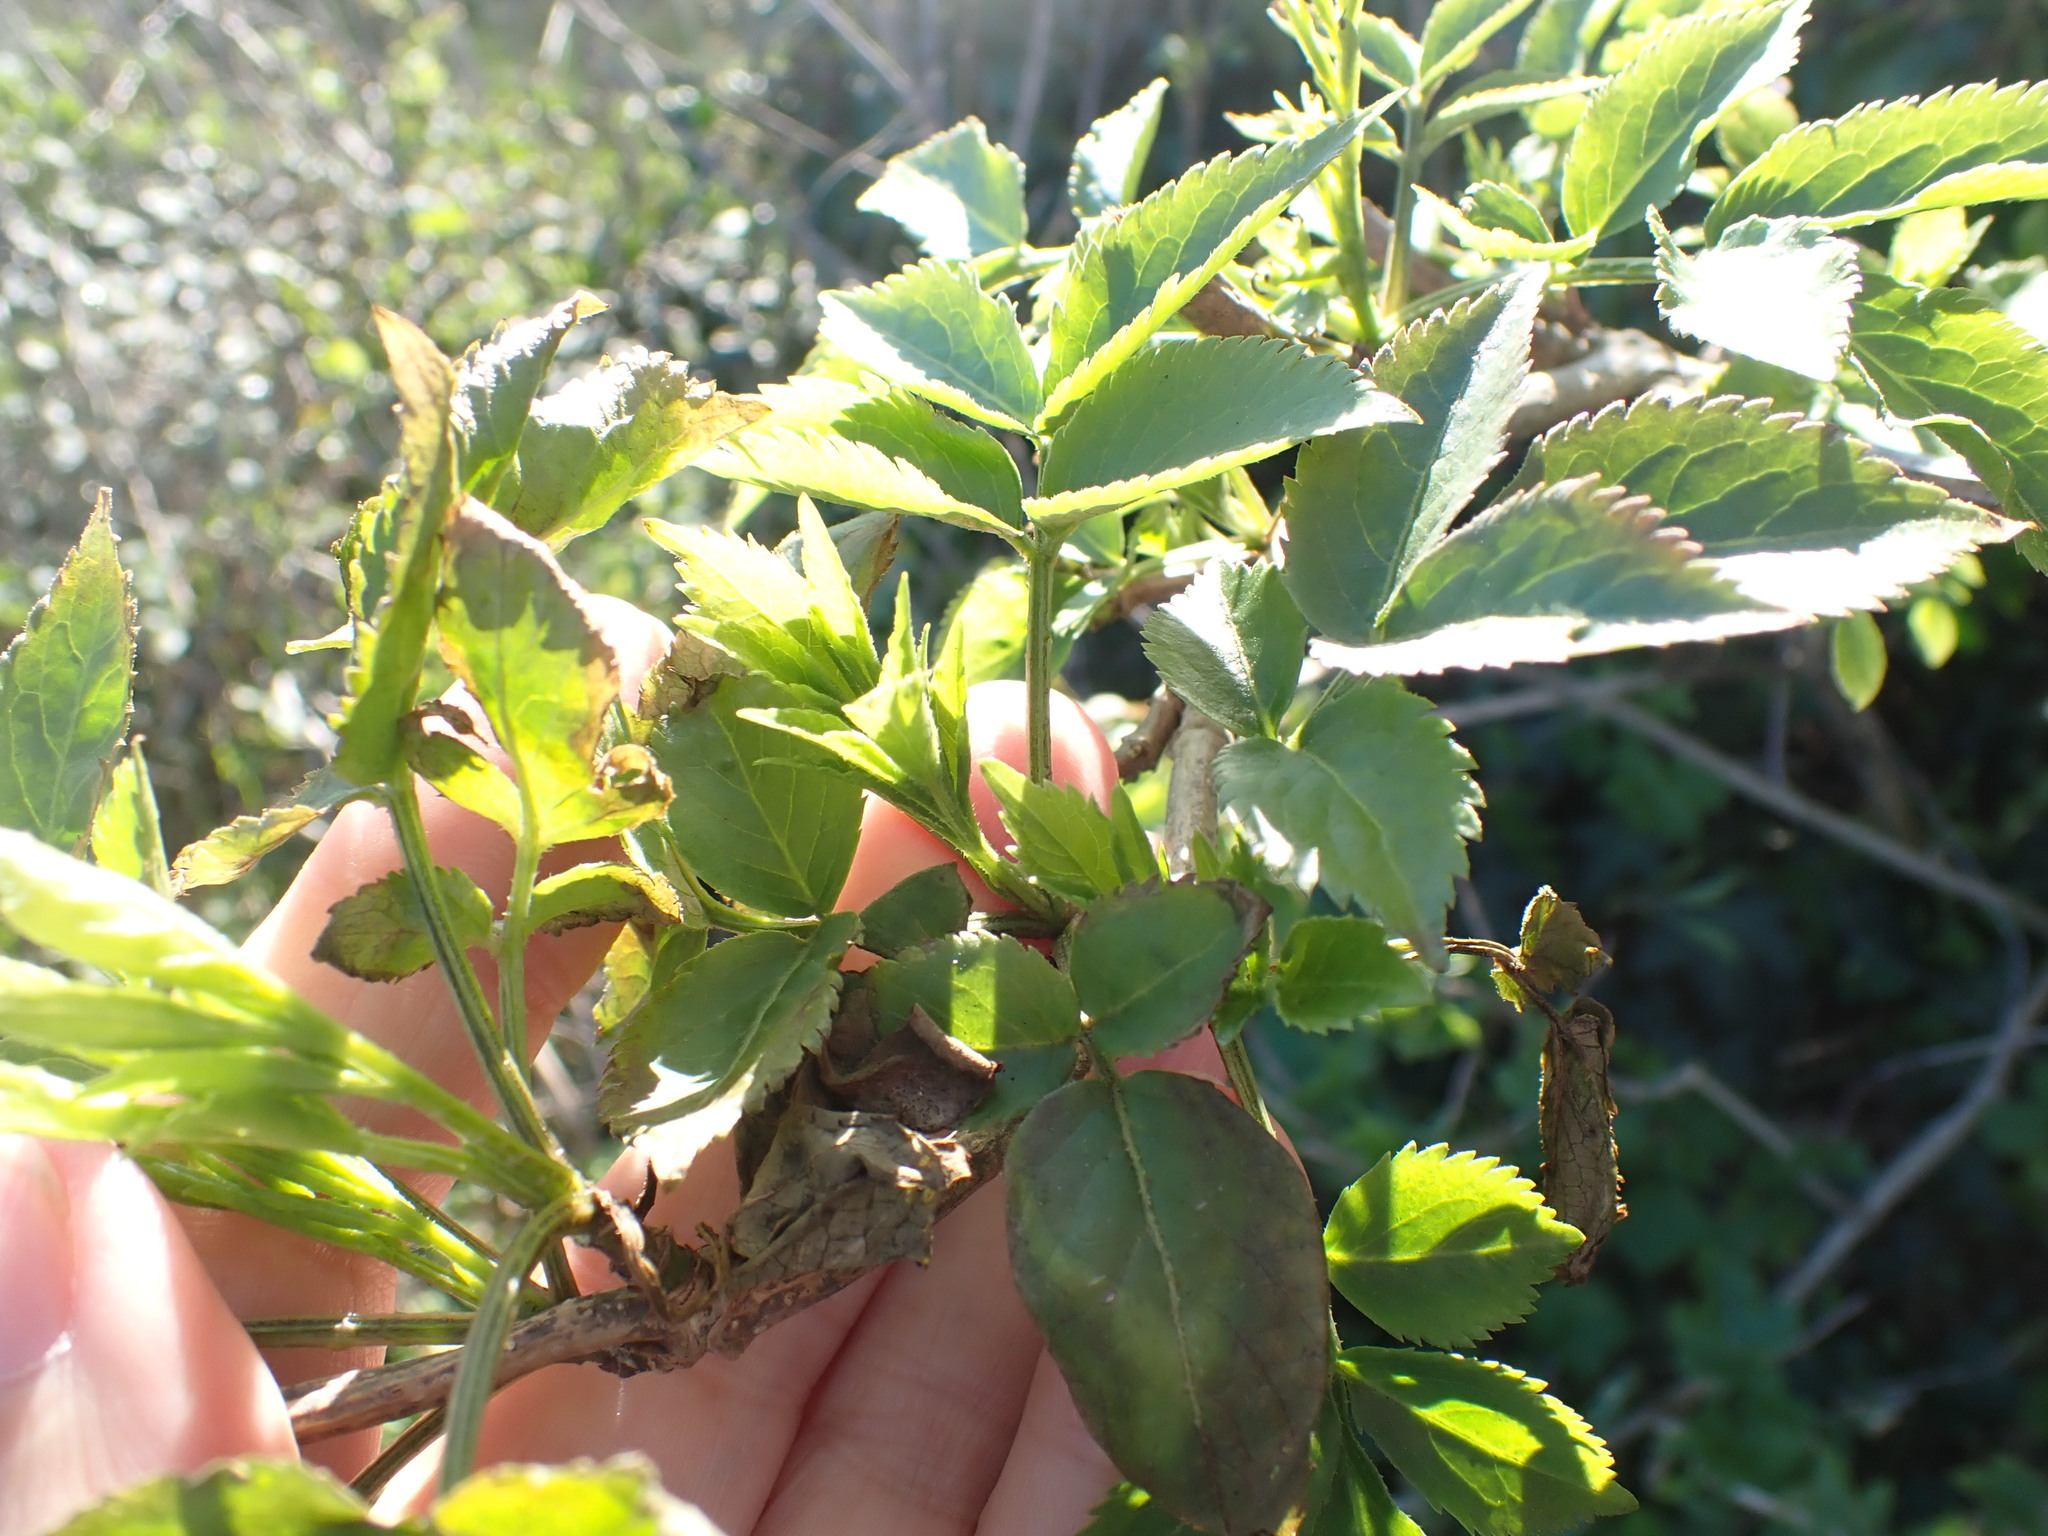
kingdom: Plantae
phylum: Tracheophyta
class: Magnoliopsida
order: Dipsacales
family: Viburnaceae
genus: Sambucus
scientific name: Sambucus nigra
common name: Elder
